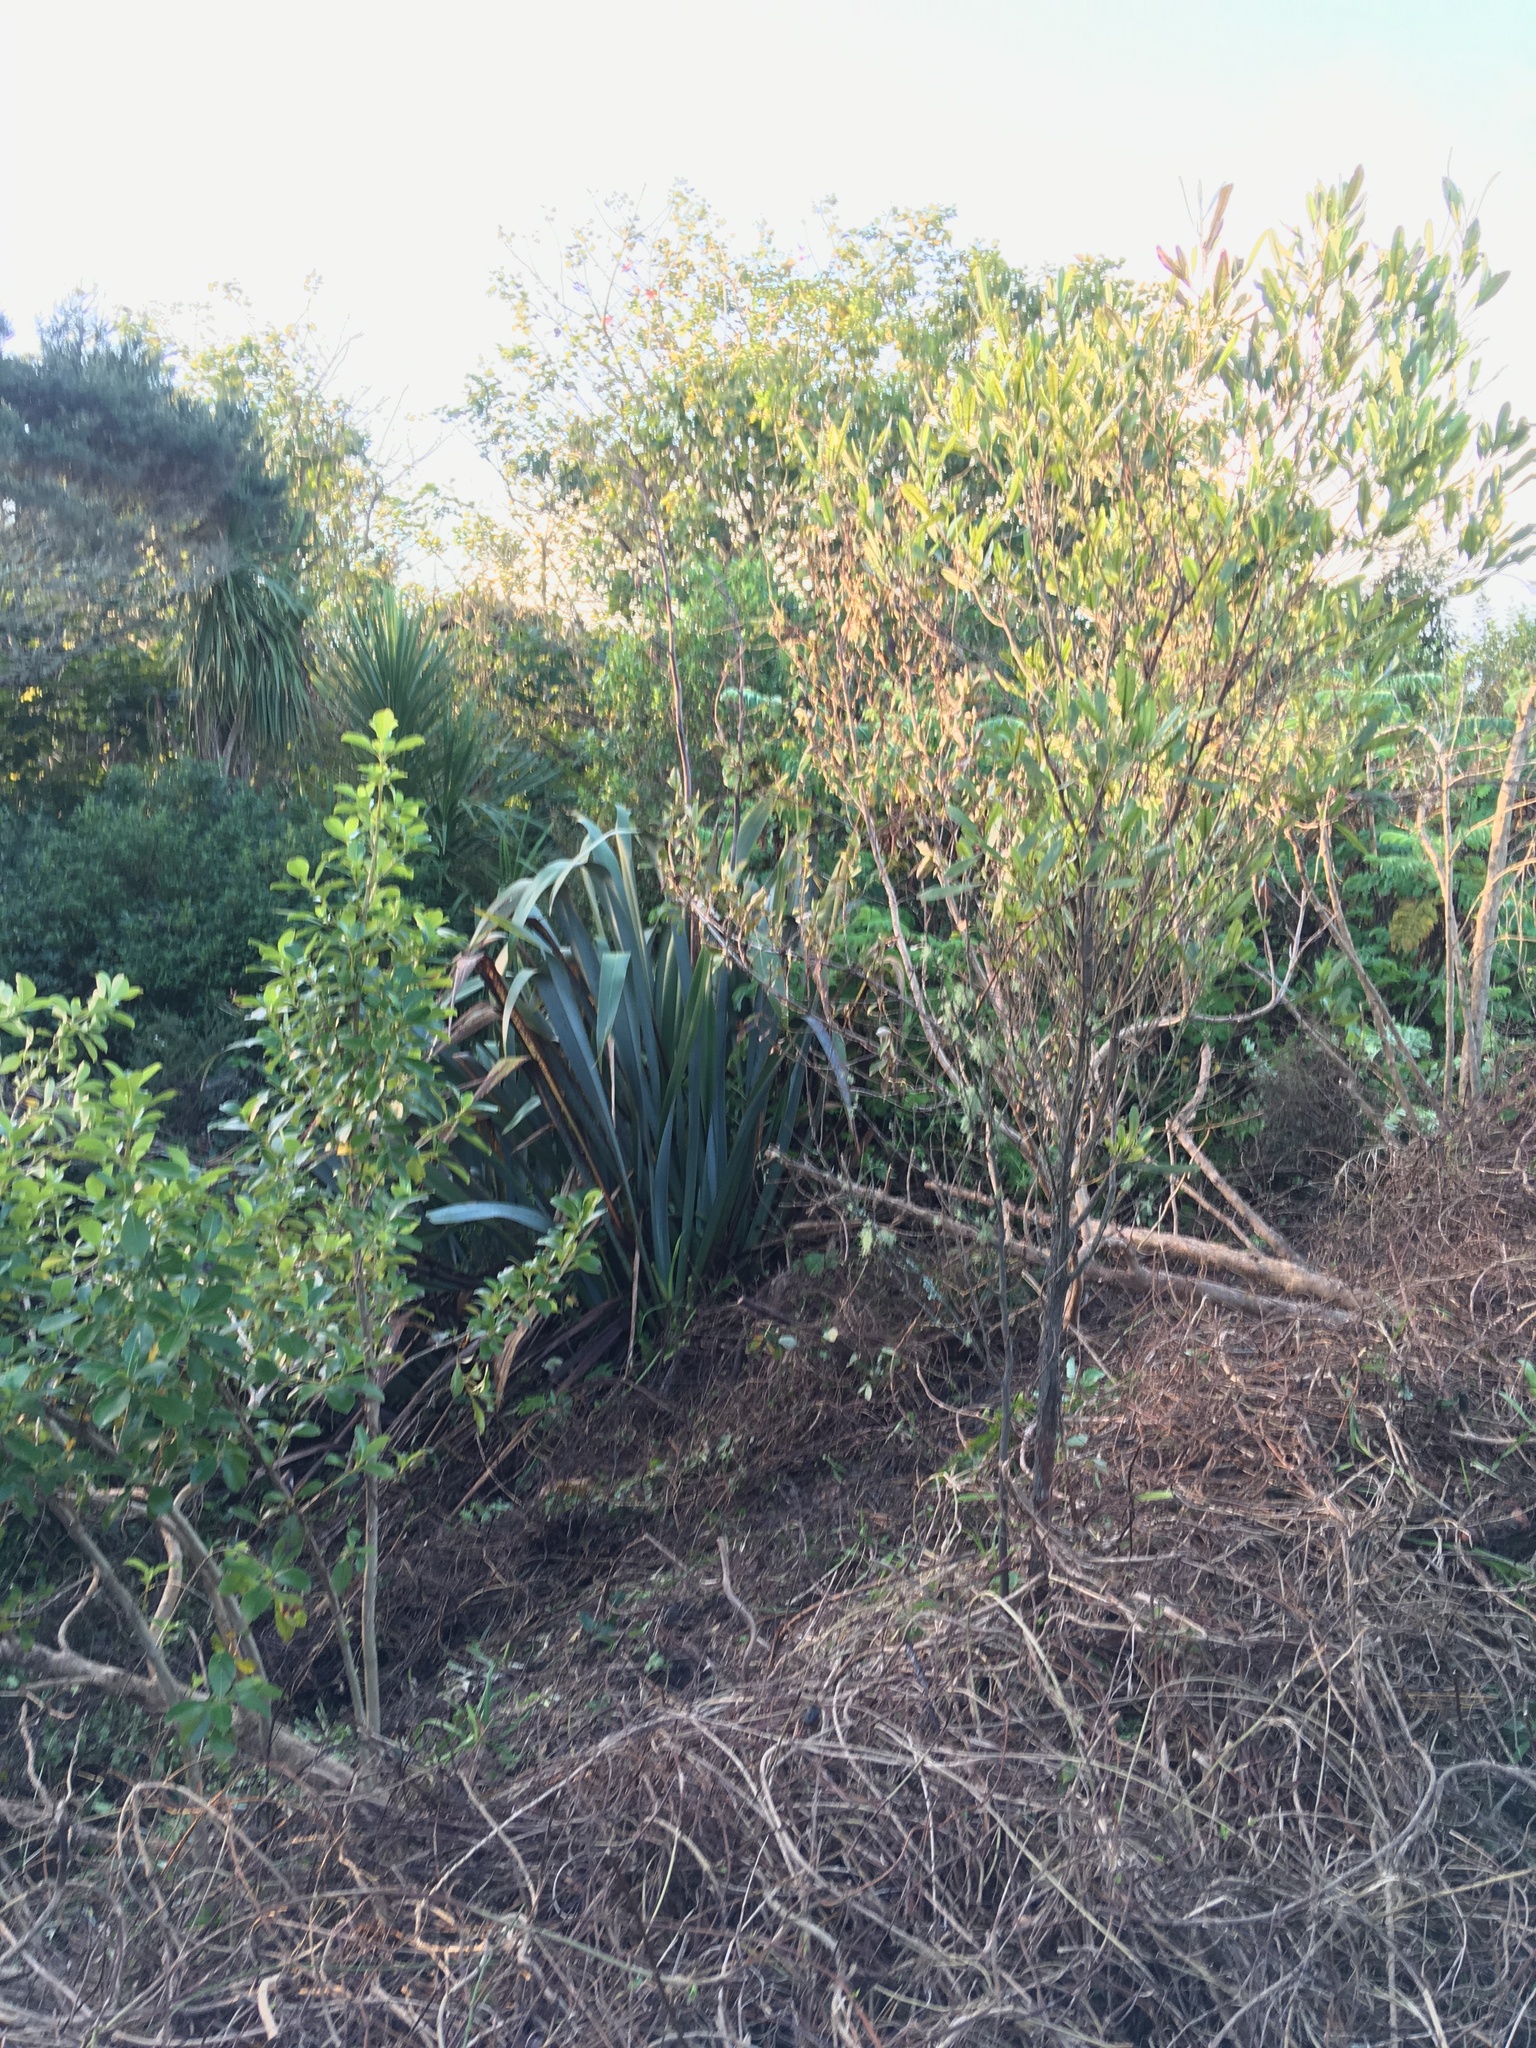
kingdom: Plantae
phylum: Tracheophyta
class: Magnoliopsida
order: Sapindales
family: Sapindaceae
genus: Dodonaea
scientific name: Dodonaea viscosa
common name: Hopbush
